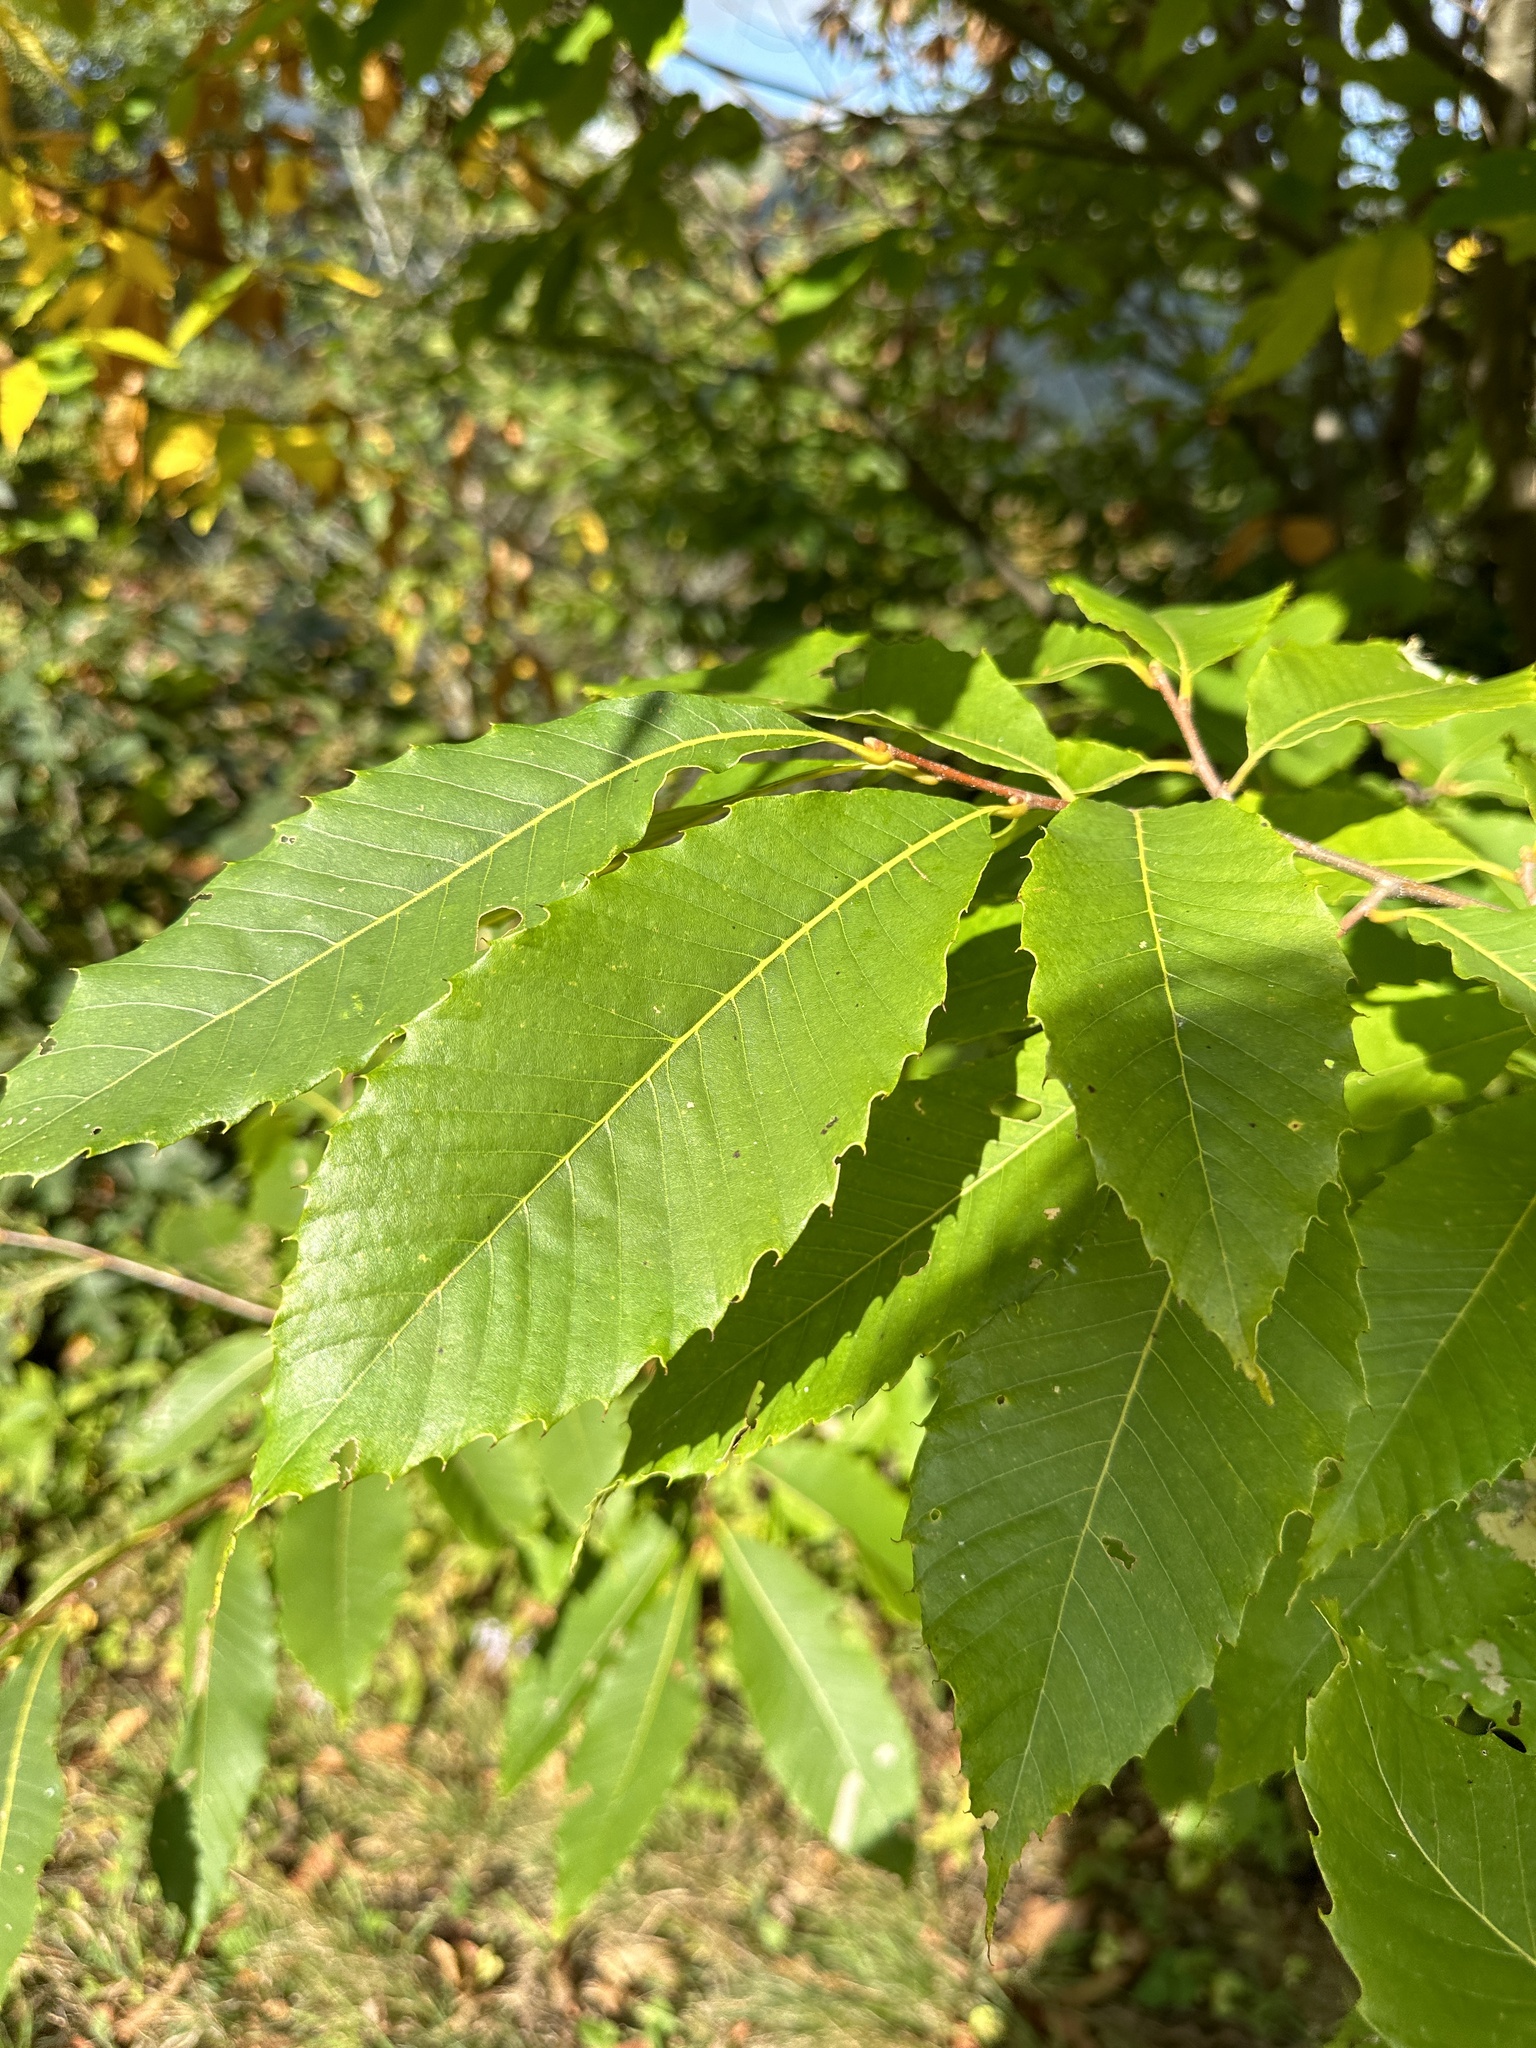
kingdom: Plantae
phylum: Tracheophyta
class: Magnoliopsida
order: Fagales
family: Fagaceae
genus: Castanea
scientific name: Castanea dentata
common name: American chestnut
